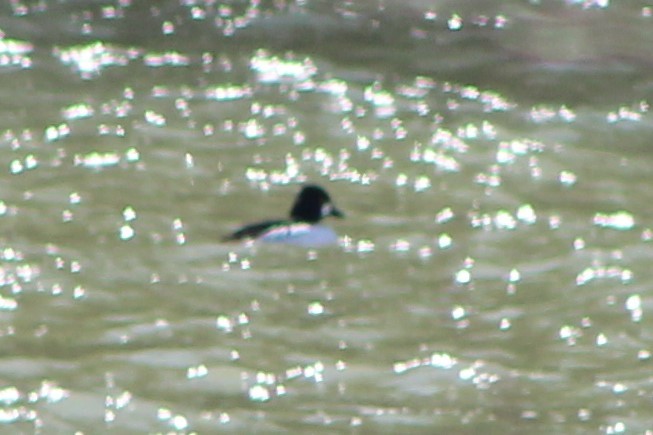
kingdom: Animalia
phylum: Chordata
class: Aves
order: Anseriformes
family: Anatidae
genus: Bucephala
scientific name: Bucephala clangula
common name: Common goldeneye
